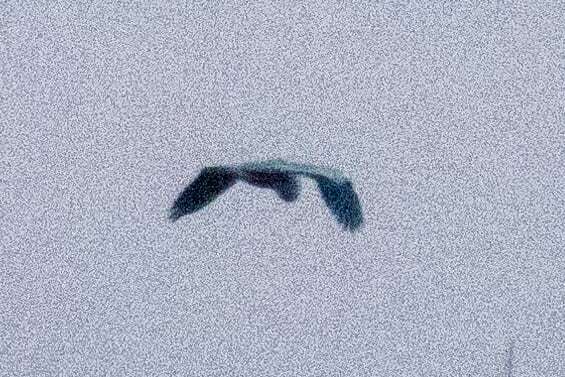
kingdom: Animalia
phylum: Chordata
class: Aves
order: Pelecaniformes
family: Ardeidae
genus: Ardea
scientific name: Ardea cinerea
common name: Grey heron
